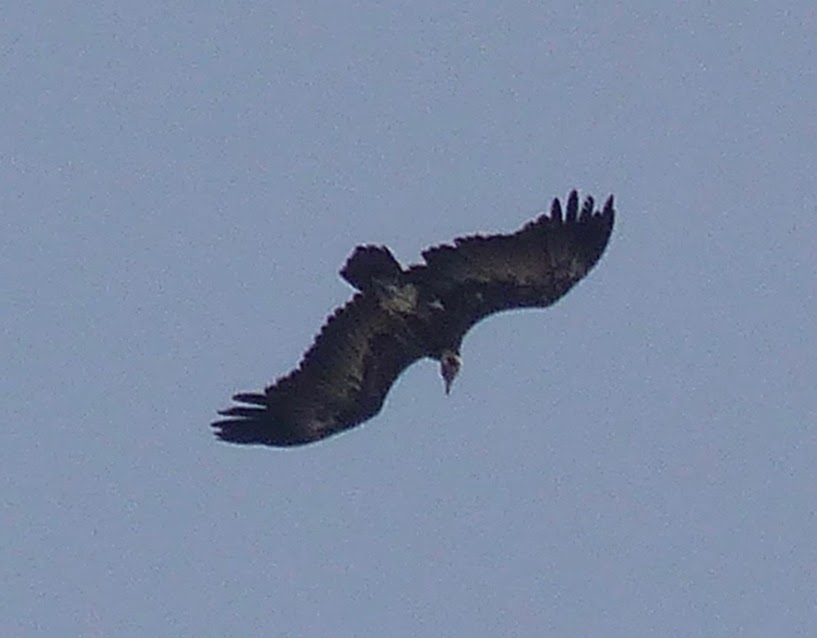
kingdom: Animalia
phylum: Chordata
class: Aves
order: Accipitriformes
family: Accipitridae
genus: Necrosyrtes
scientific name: Necrosyrtes monachus
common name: Hooded vulture
